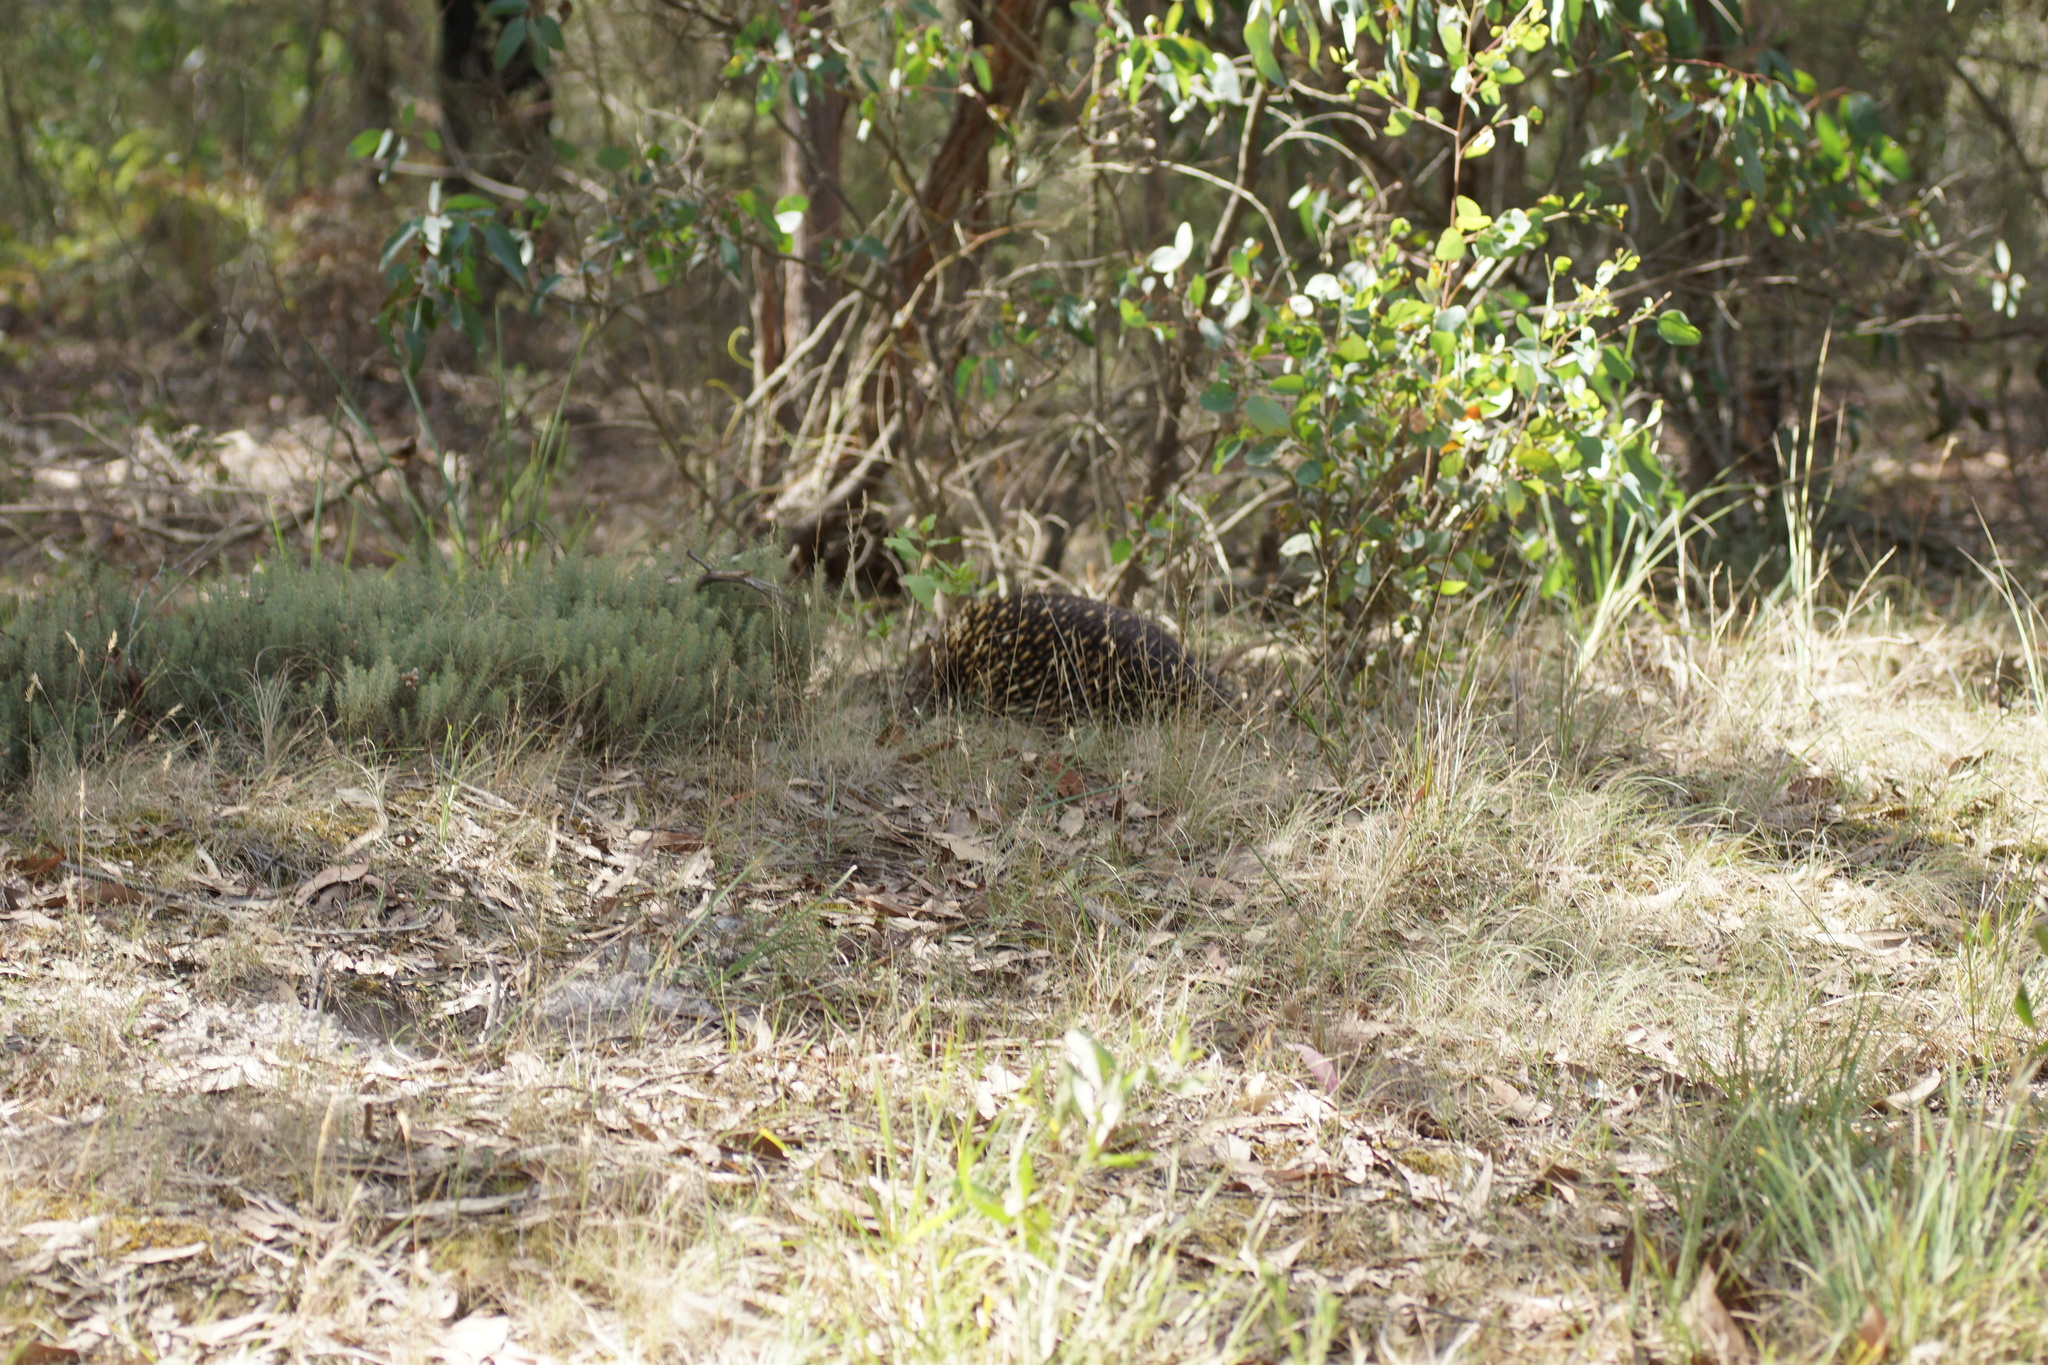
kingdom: Animalia
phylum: Chordata
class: Mammalia
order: Monotremata
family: Tachyglossidae
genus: Tachyglossus
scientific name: Tachyglossus aculeatus
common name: Short-beaked echidna
